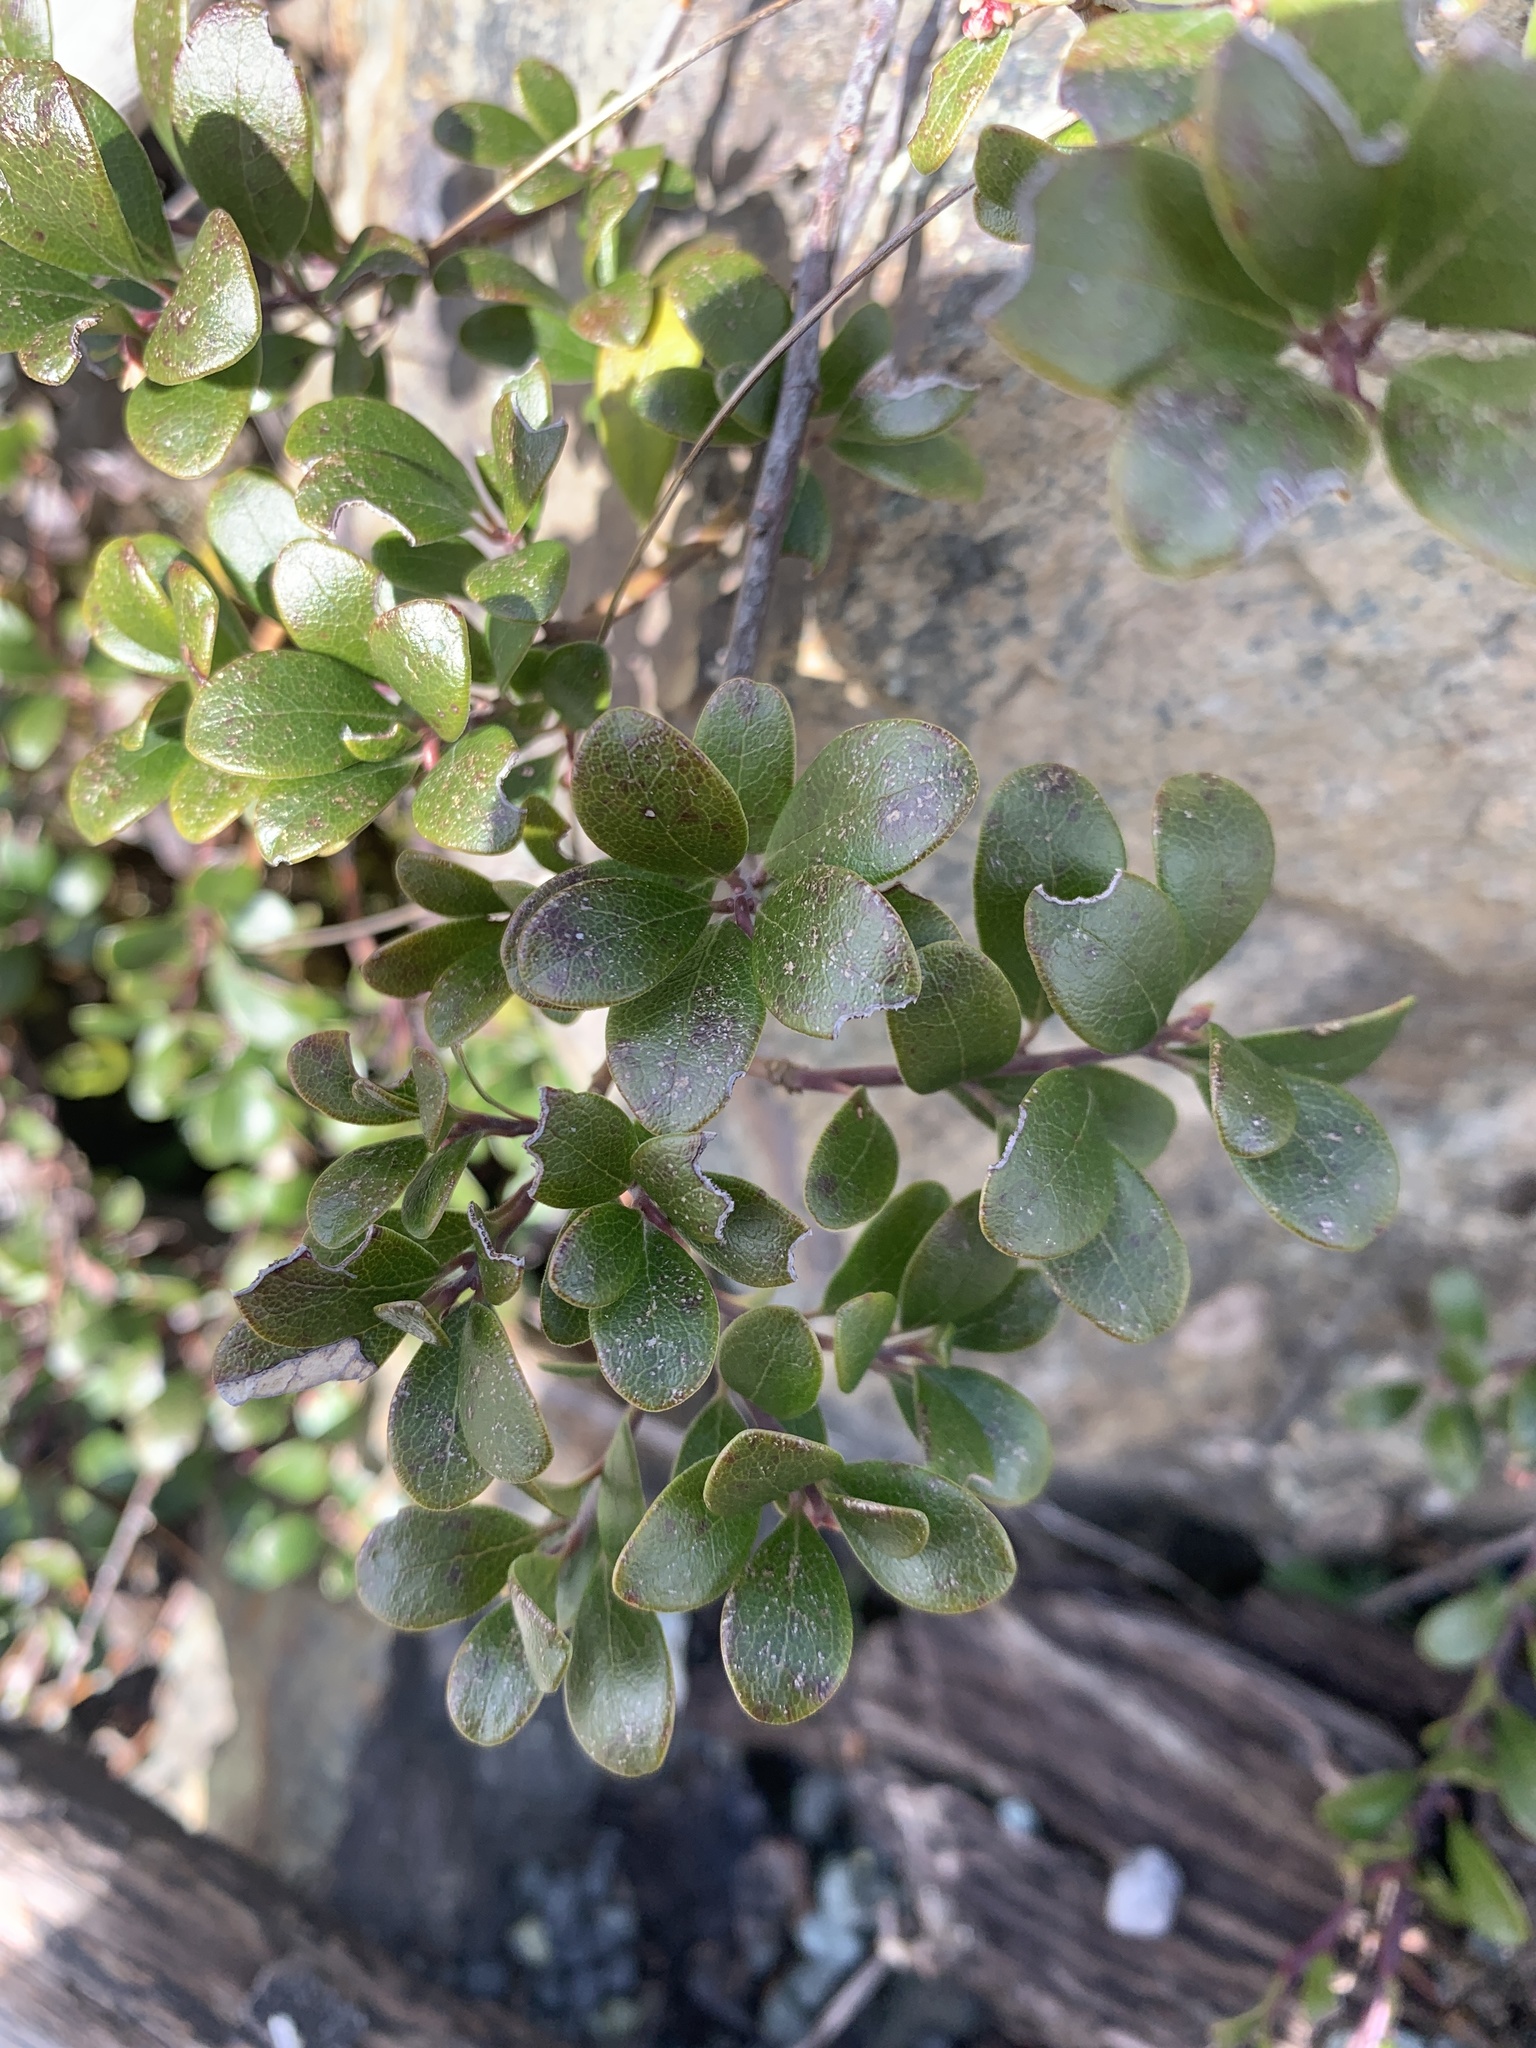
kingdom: Plantae
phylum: Tracheophyta
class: Magnoliopsida
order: Ericales
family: Ericaceae
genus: Arctostaphylos
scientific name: Arctostaphylos uva-ursi
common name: Bearberry
